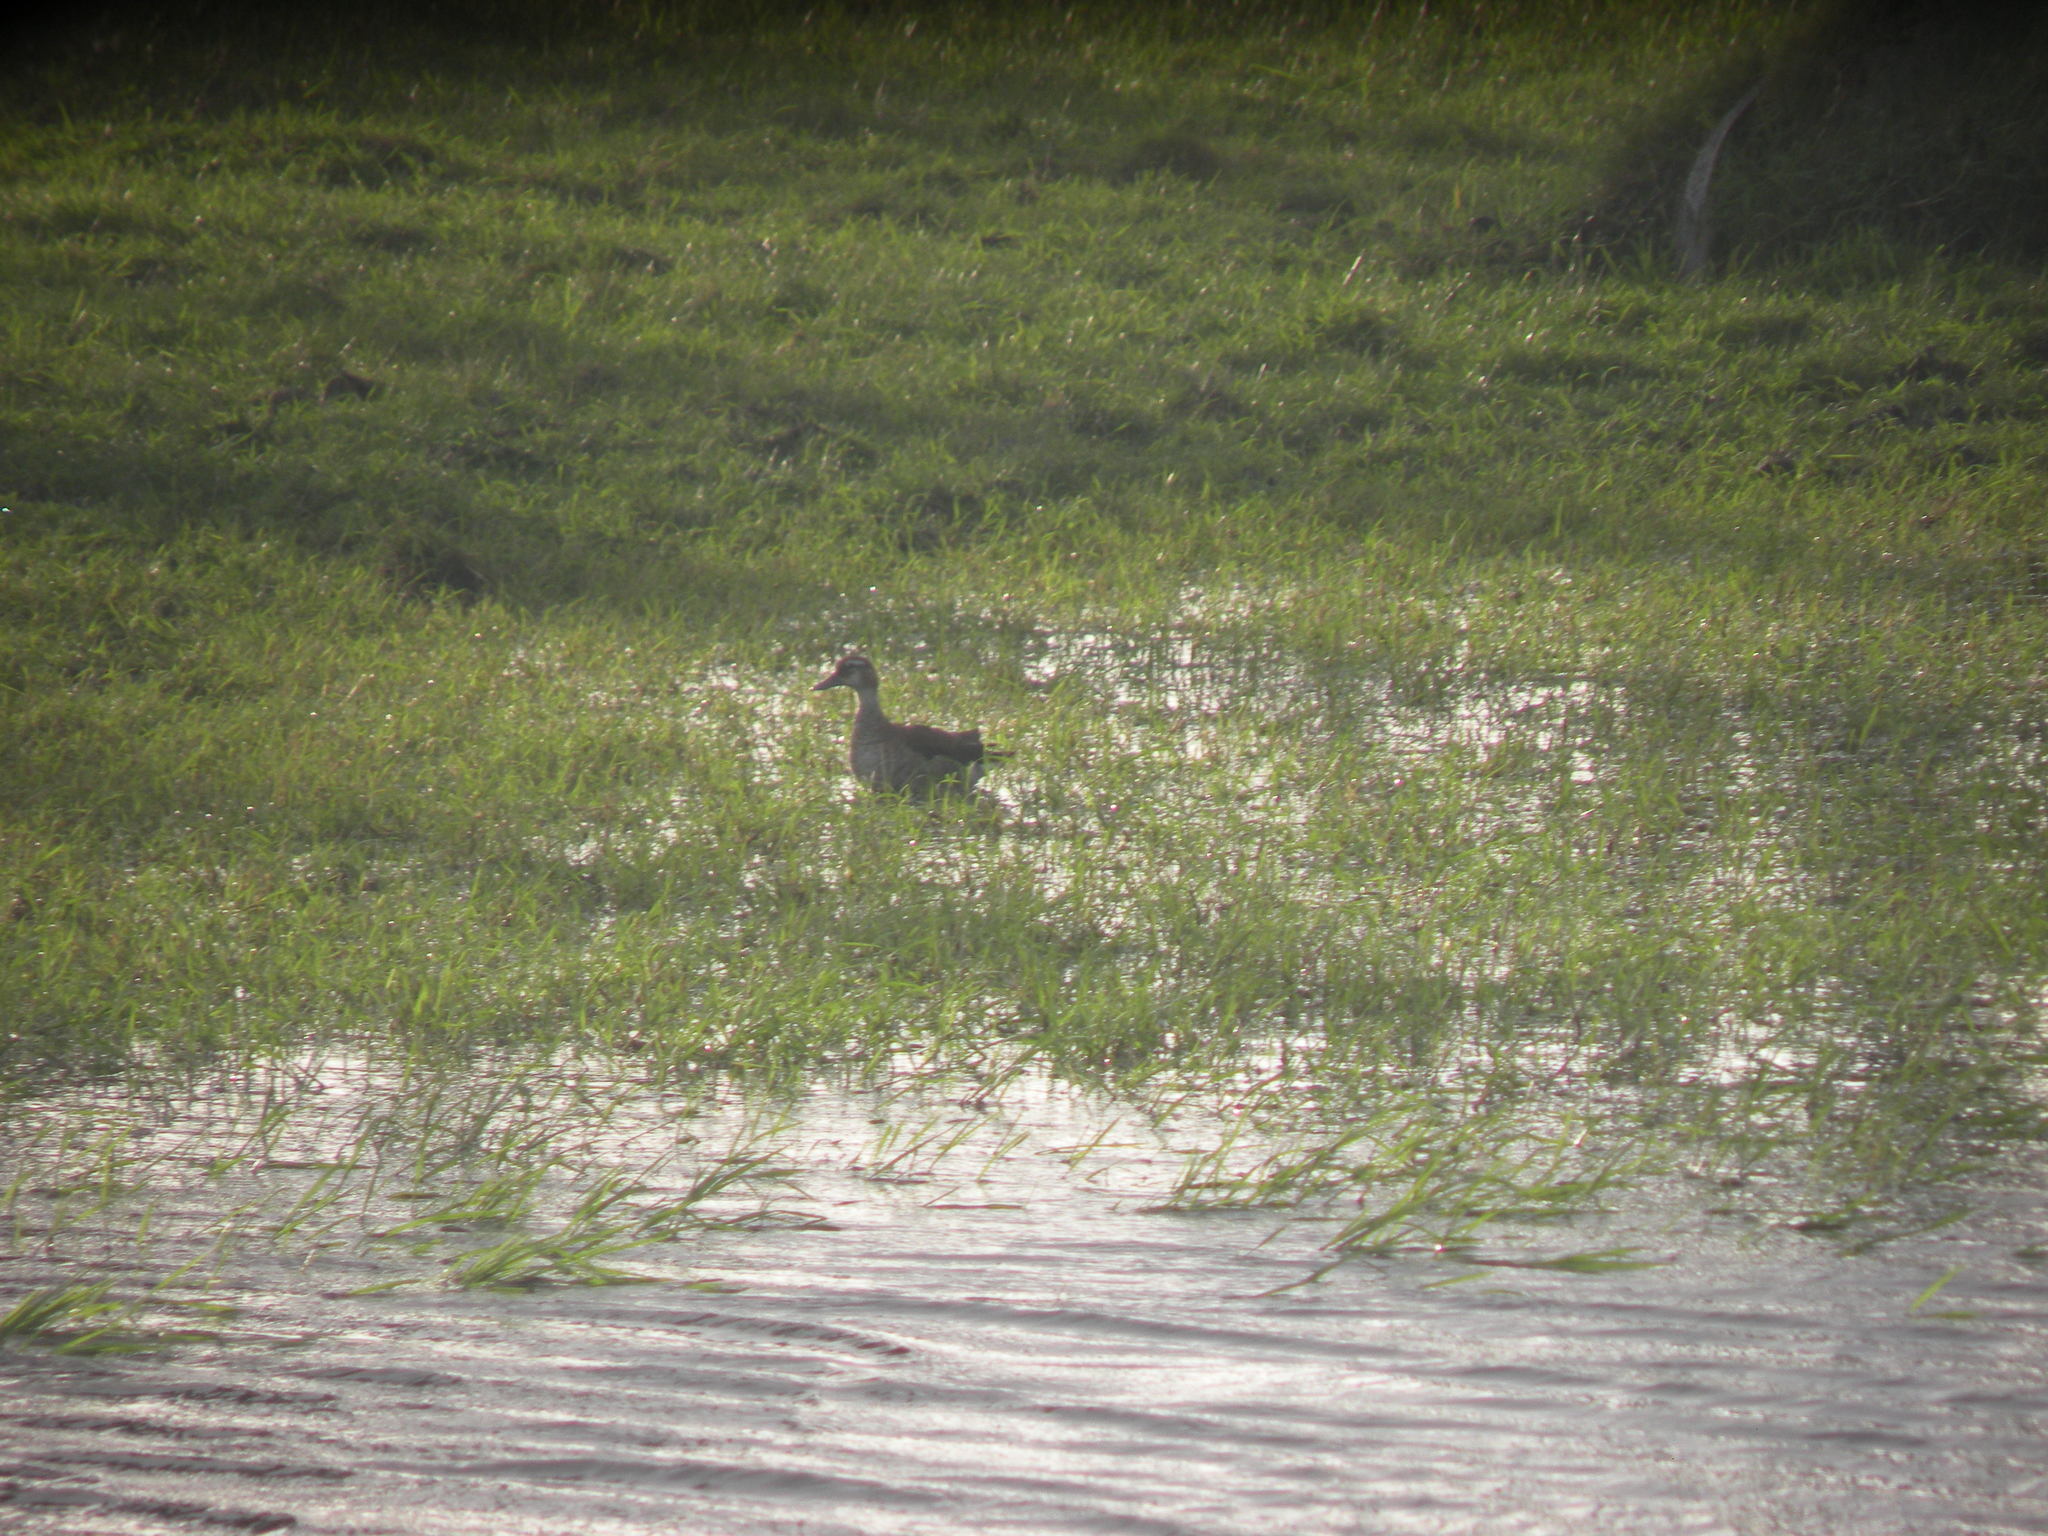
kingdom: Animalia
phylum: Chordata
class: Aves
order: Anseriformes
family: Anatidae
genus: Callonetta
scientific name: Callonetta leucophrys
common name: Ringed teal
